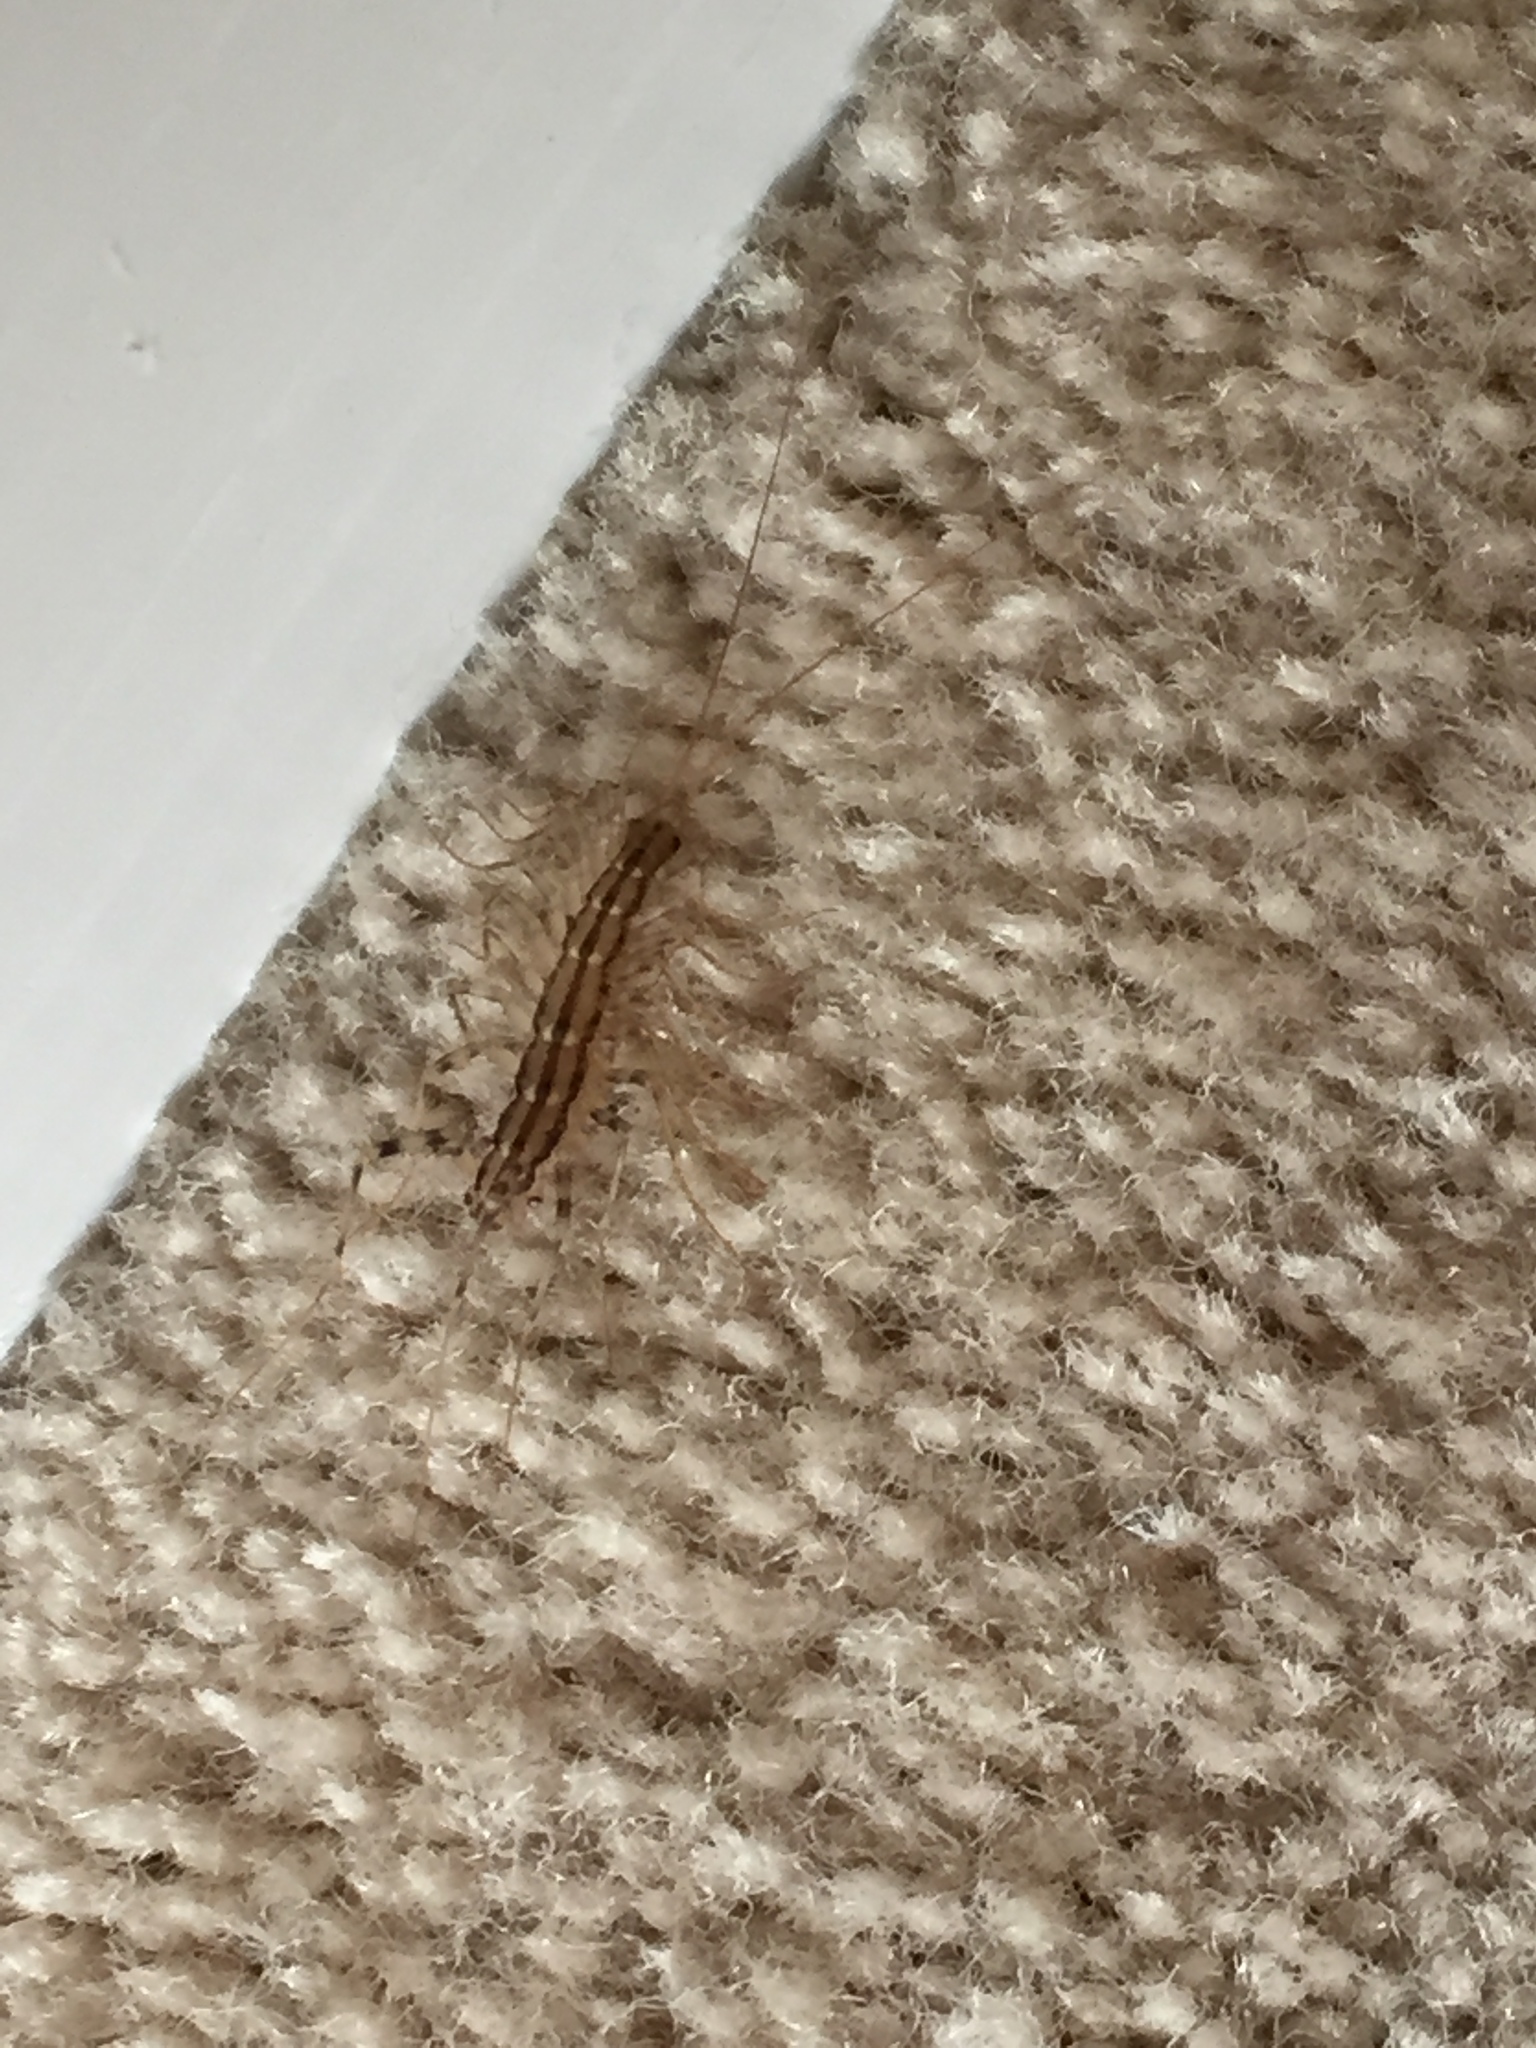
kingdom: Animalia
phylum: Arthropoda
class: Chilopoda
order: Scutigeromorpha
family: Scutigeridae
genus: Scutigera
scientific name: Scutigera coleoptrata
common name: House centipede
